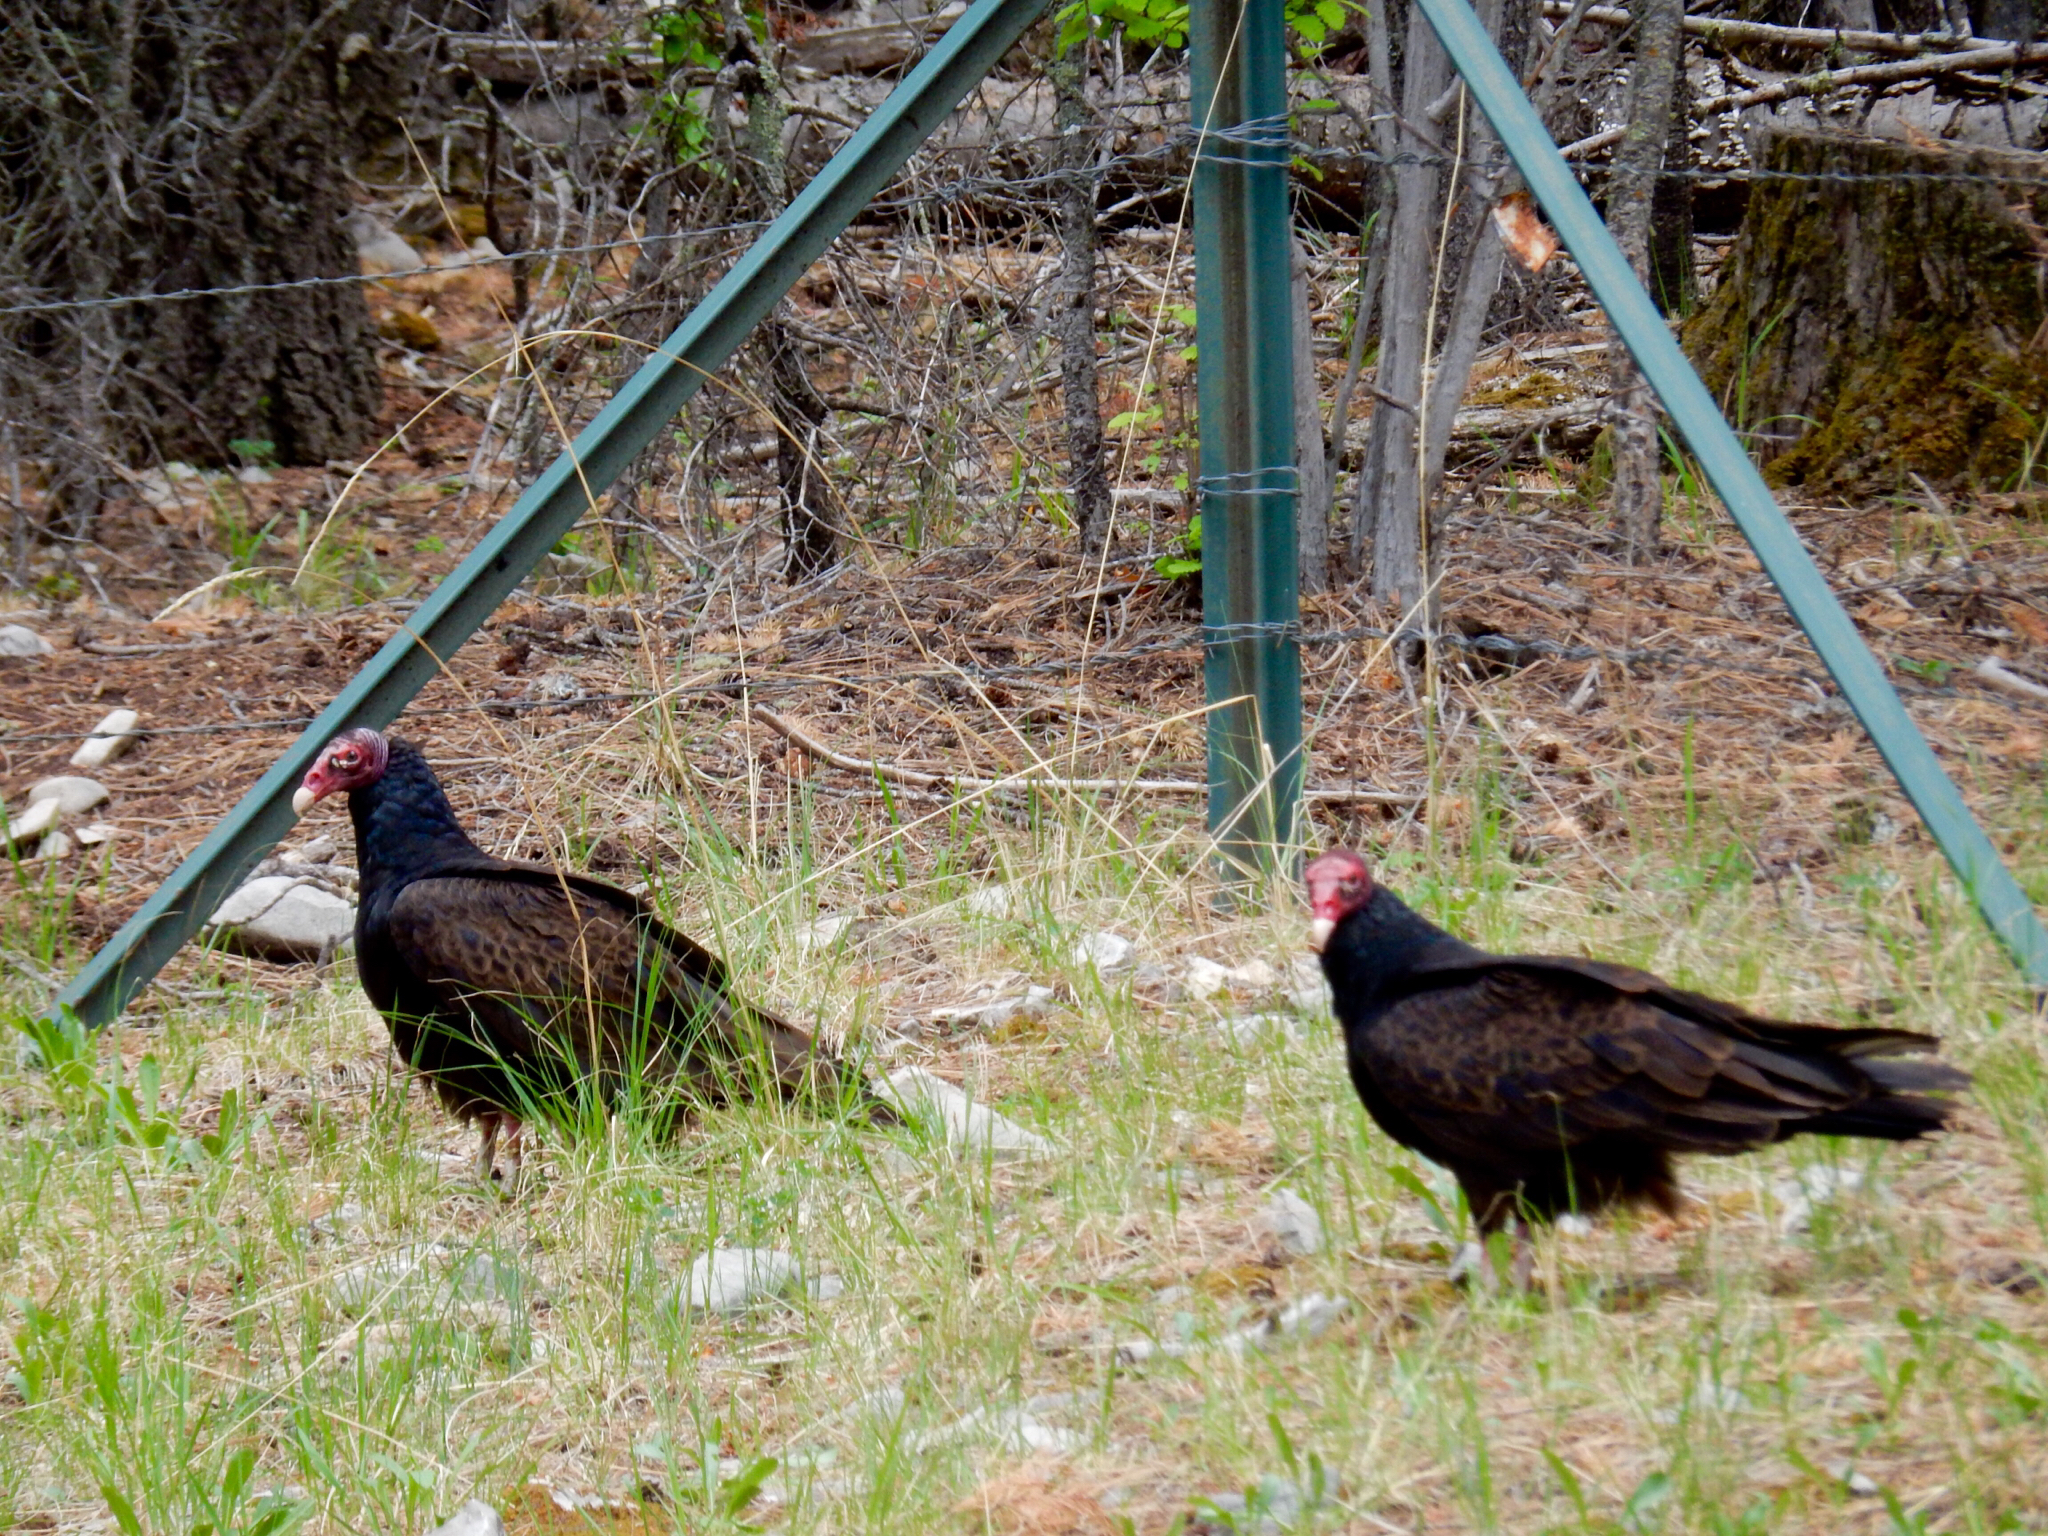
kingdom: Animalia
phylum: Chordata
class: Aves
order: Accipitriformes
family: Cathartidae
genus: Cathartes
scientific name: Cathartes aura
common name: Turkey vulture
